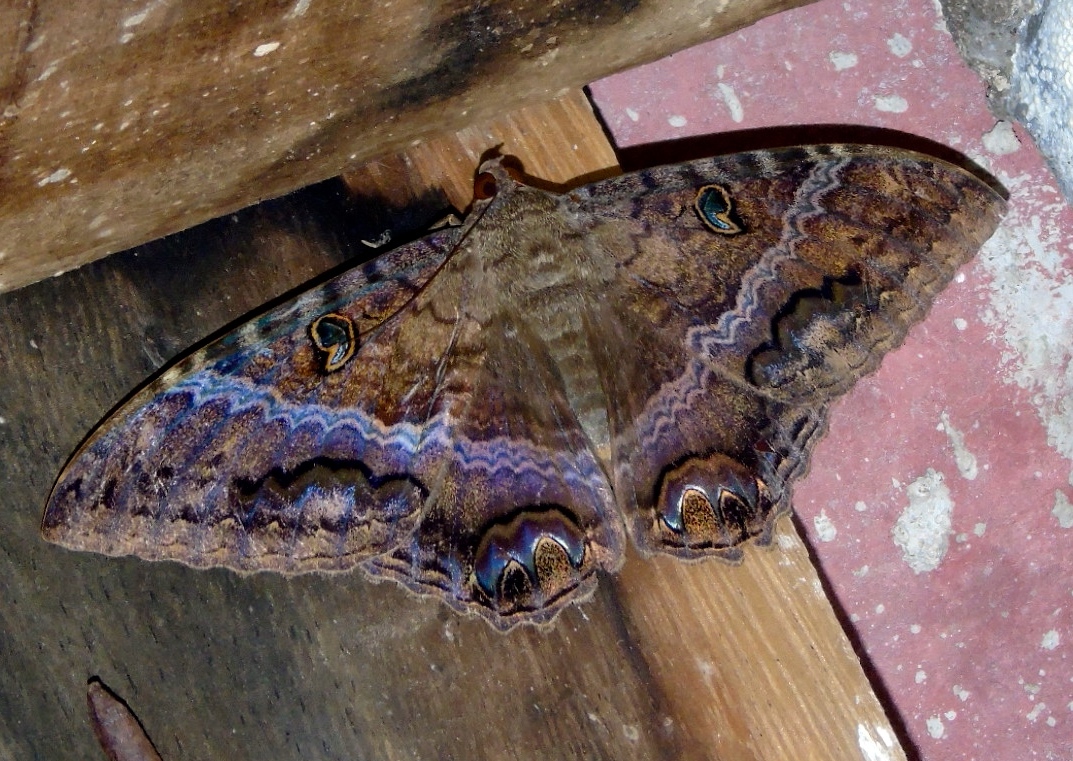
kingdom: Animalia
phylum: Arthropoda
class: Insecta
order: Lepidoptera
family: Erebidae
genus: Ascalapha
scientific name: Ascalapha odorata
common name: Black witch
